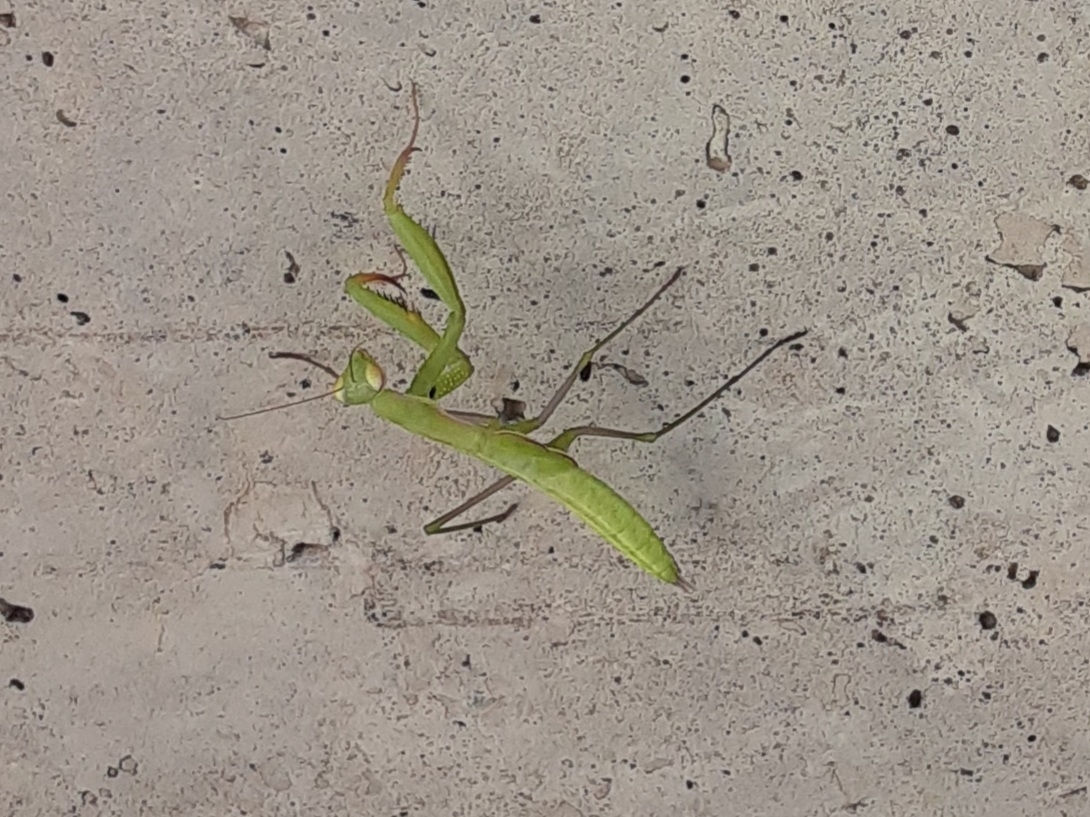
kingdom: Animalia
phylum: Arthropoda
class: Insecta
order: Mantodea
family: Mantidae
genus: Mantis
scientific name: Mantis religiosa
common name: Praying mantis
